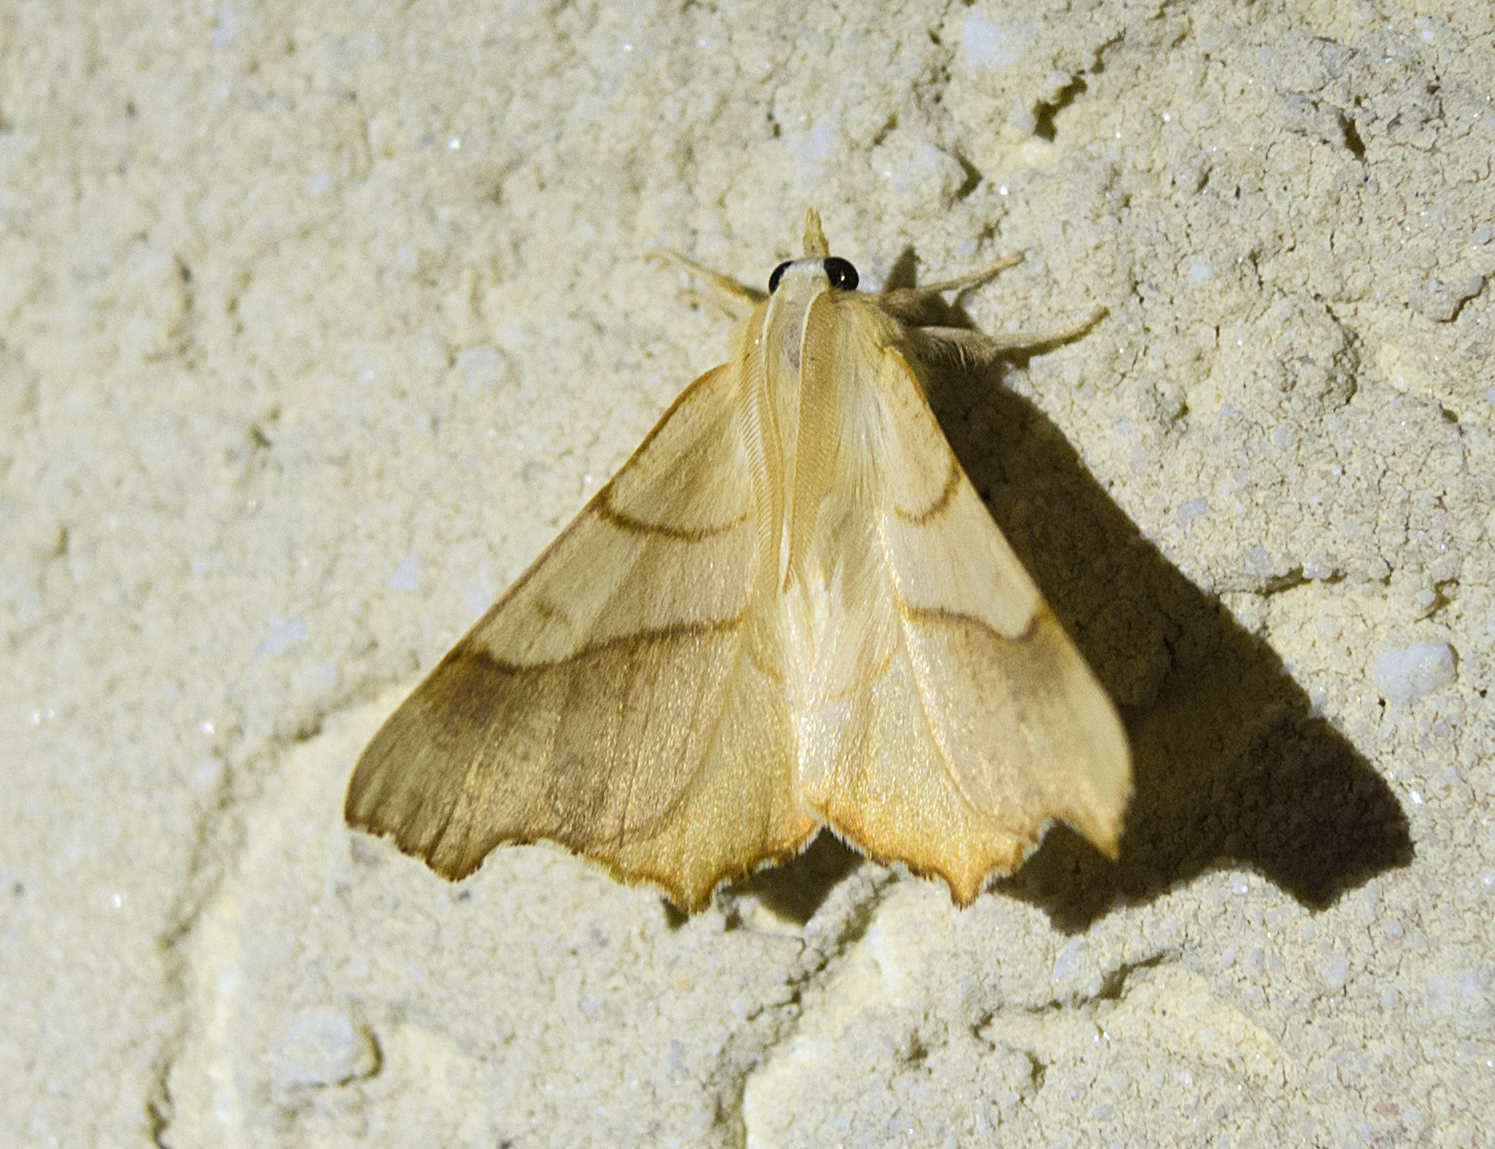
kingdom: Animalia
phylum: Arthropoda
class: Insecta
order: Lepidoptera
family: Geometridae
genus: Ennomos
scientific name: Ennomos quercinaria
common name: August thorn
